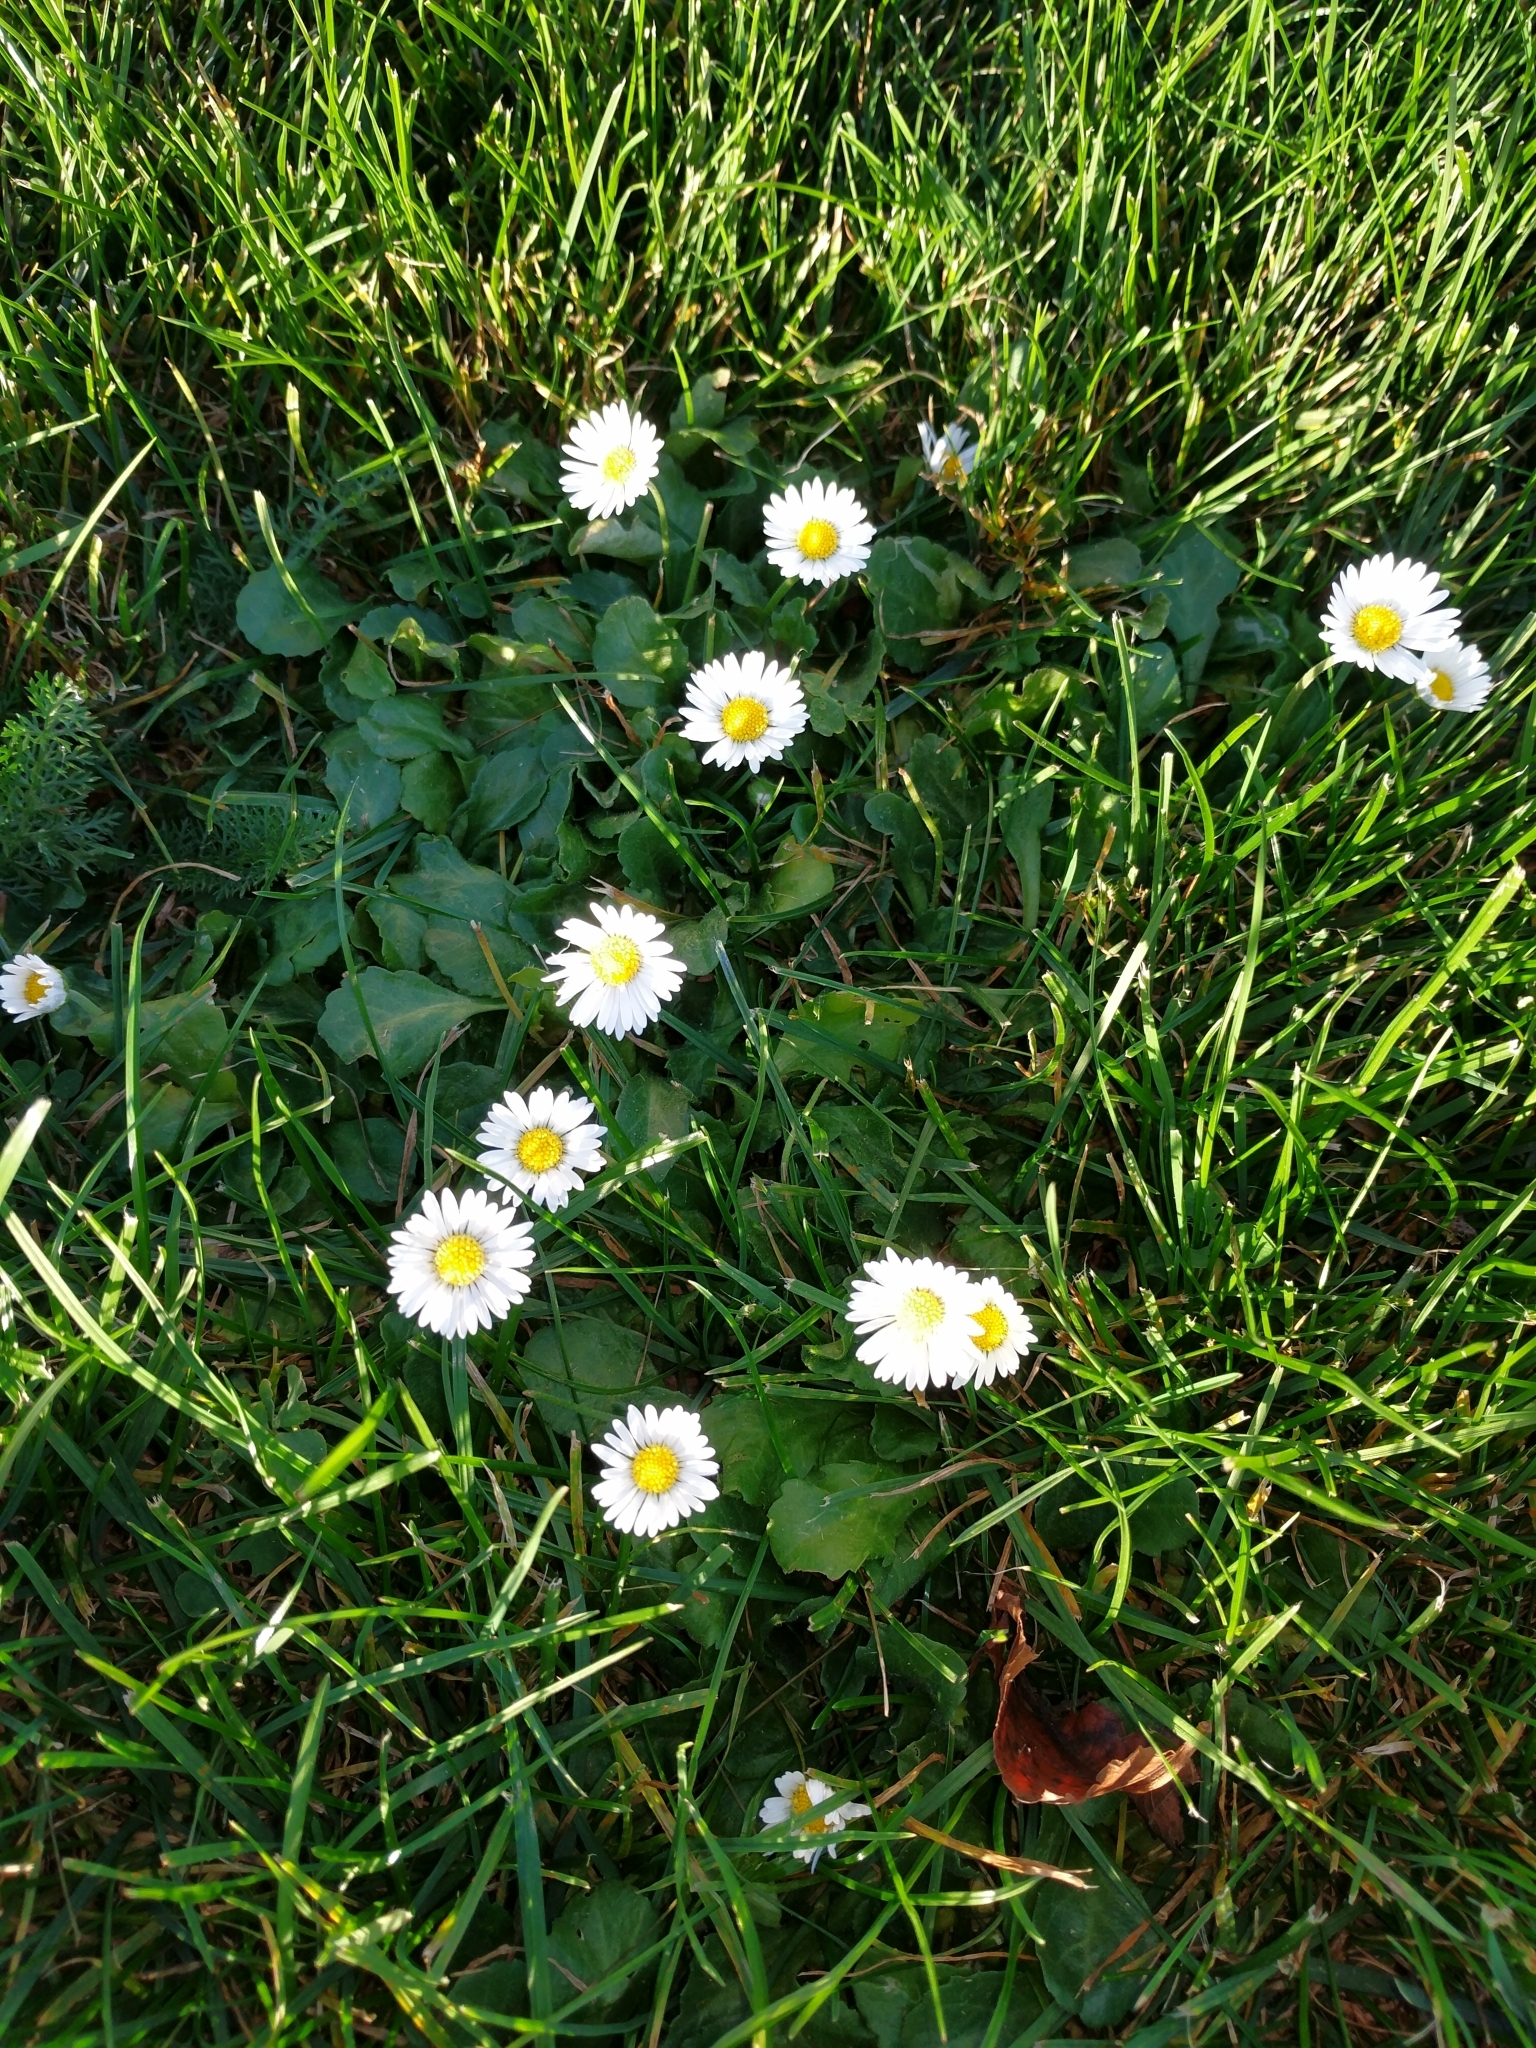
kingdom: Plantae
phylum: Tracheophyta
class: Magnoliopsida
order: Asterales
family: Asteraceae
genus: Bellis
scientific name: Bellis perennis
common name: Lawndaisy
